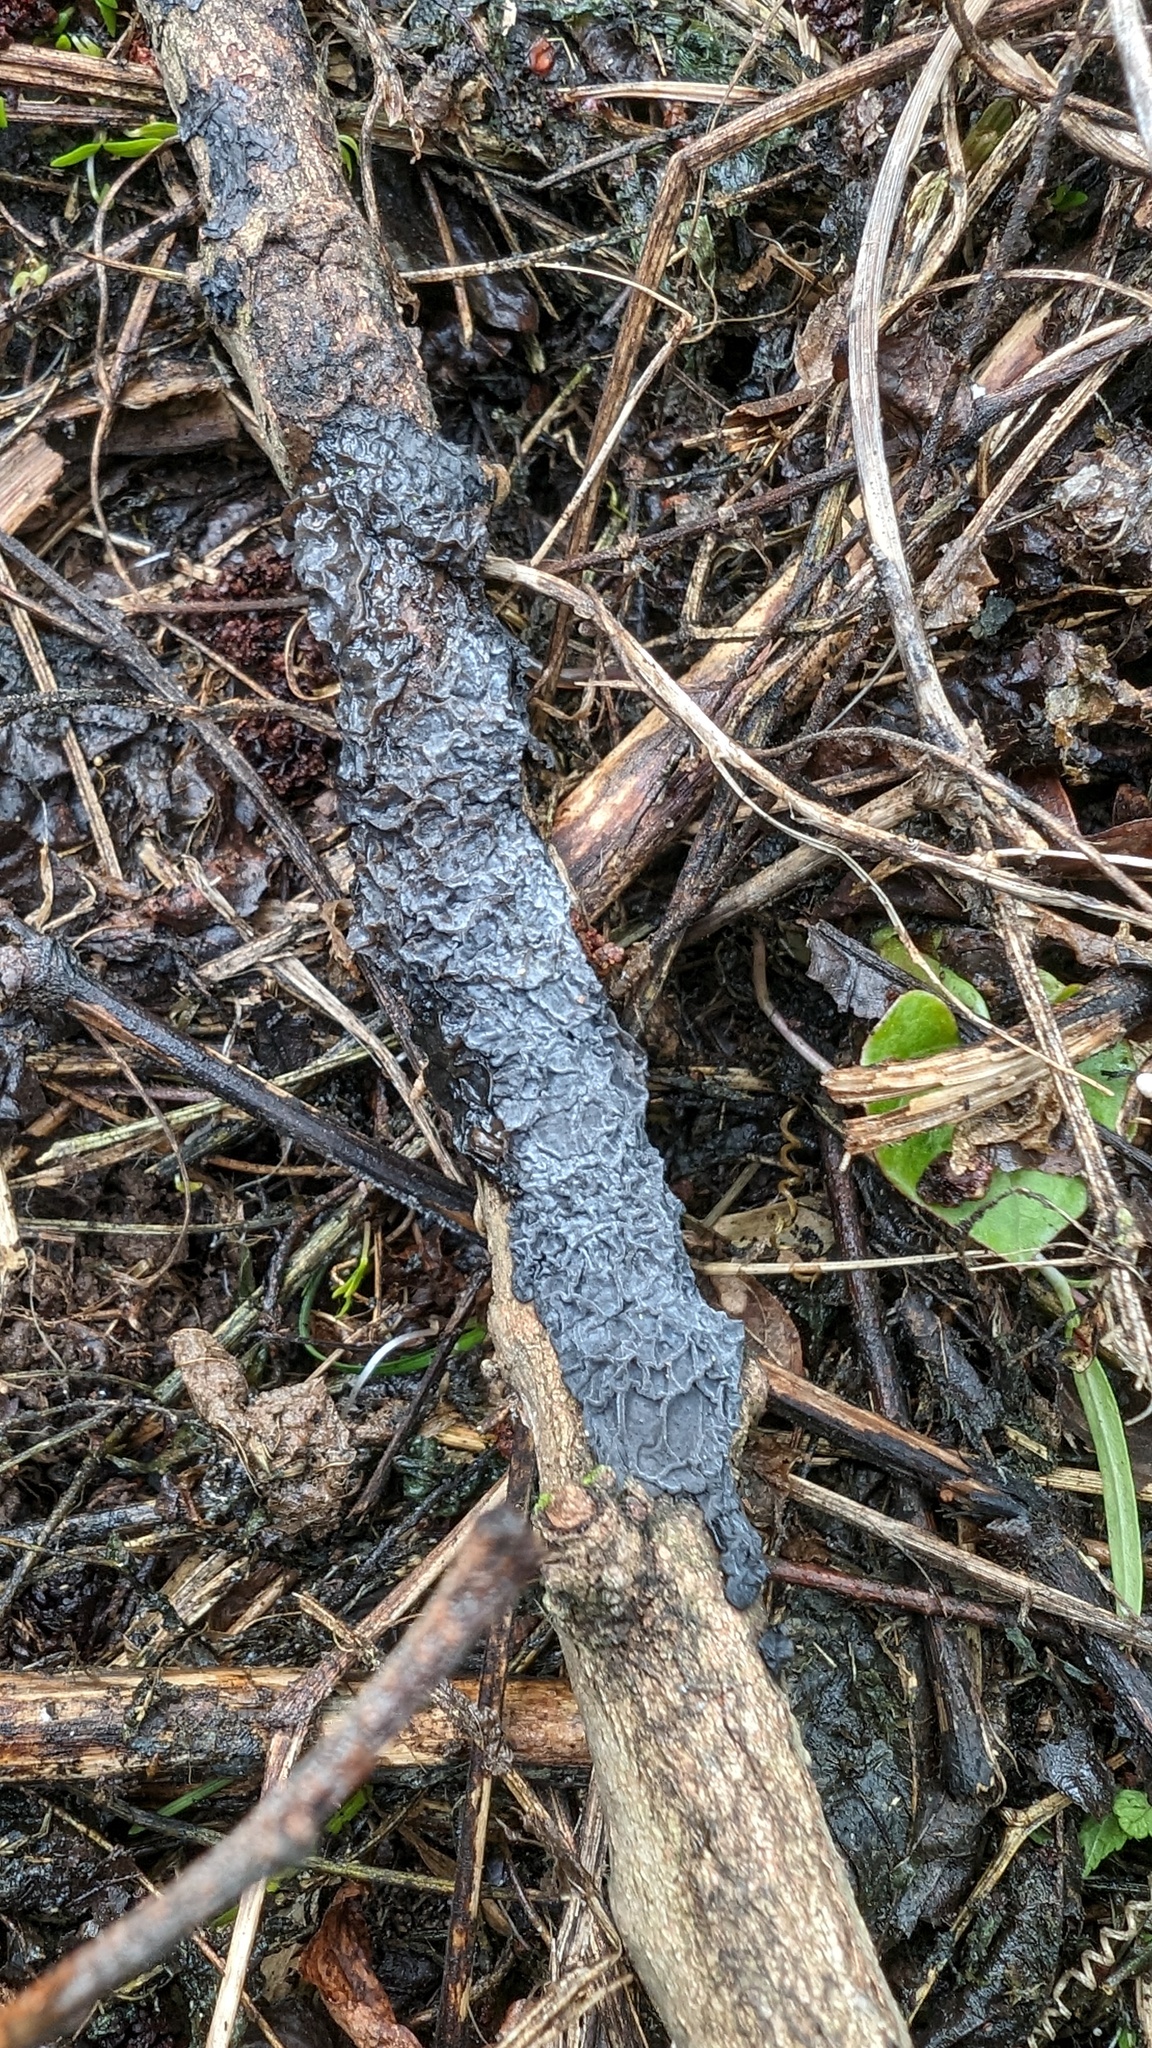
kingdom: Fungi
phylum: Basidiomycota
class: Agaricomycetes
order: Auriculariales
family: Auriculariaceae
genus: Exidia
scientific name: Exidia glandulosa
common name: Witches' butter
